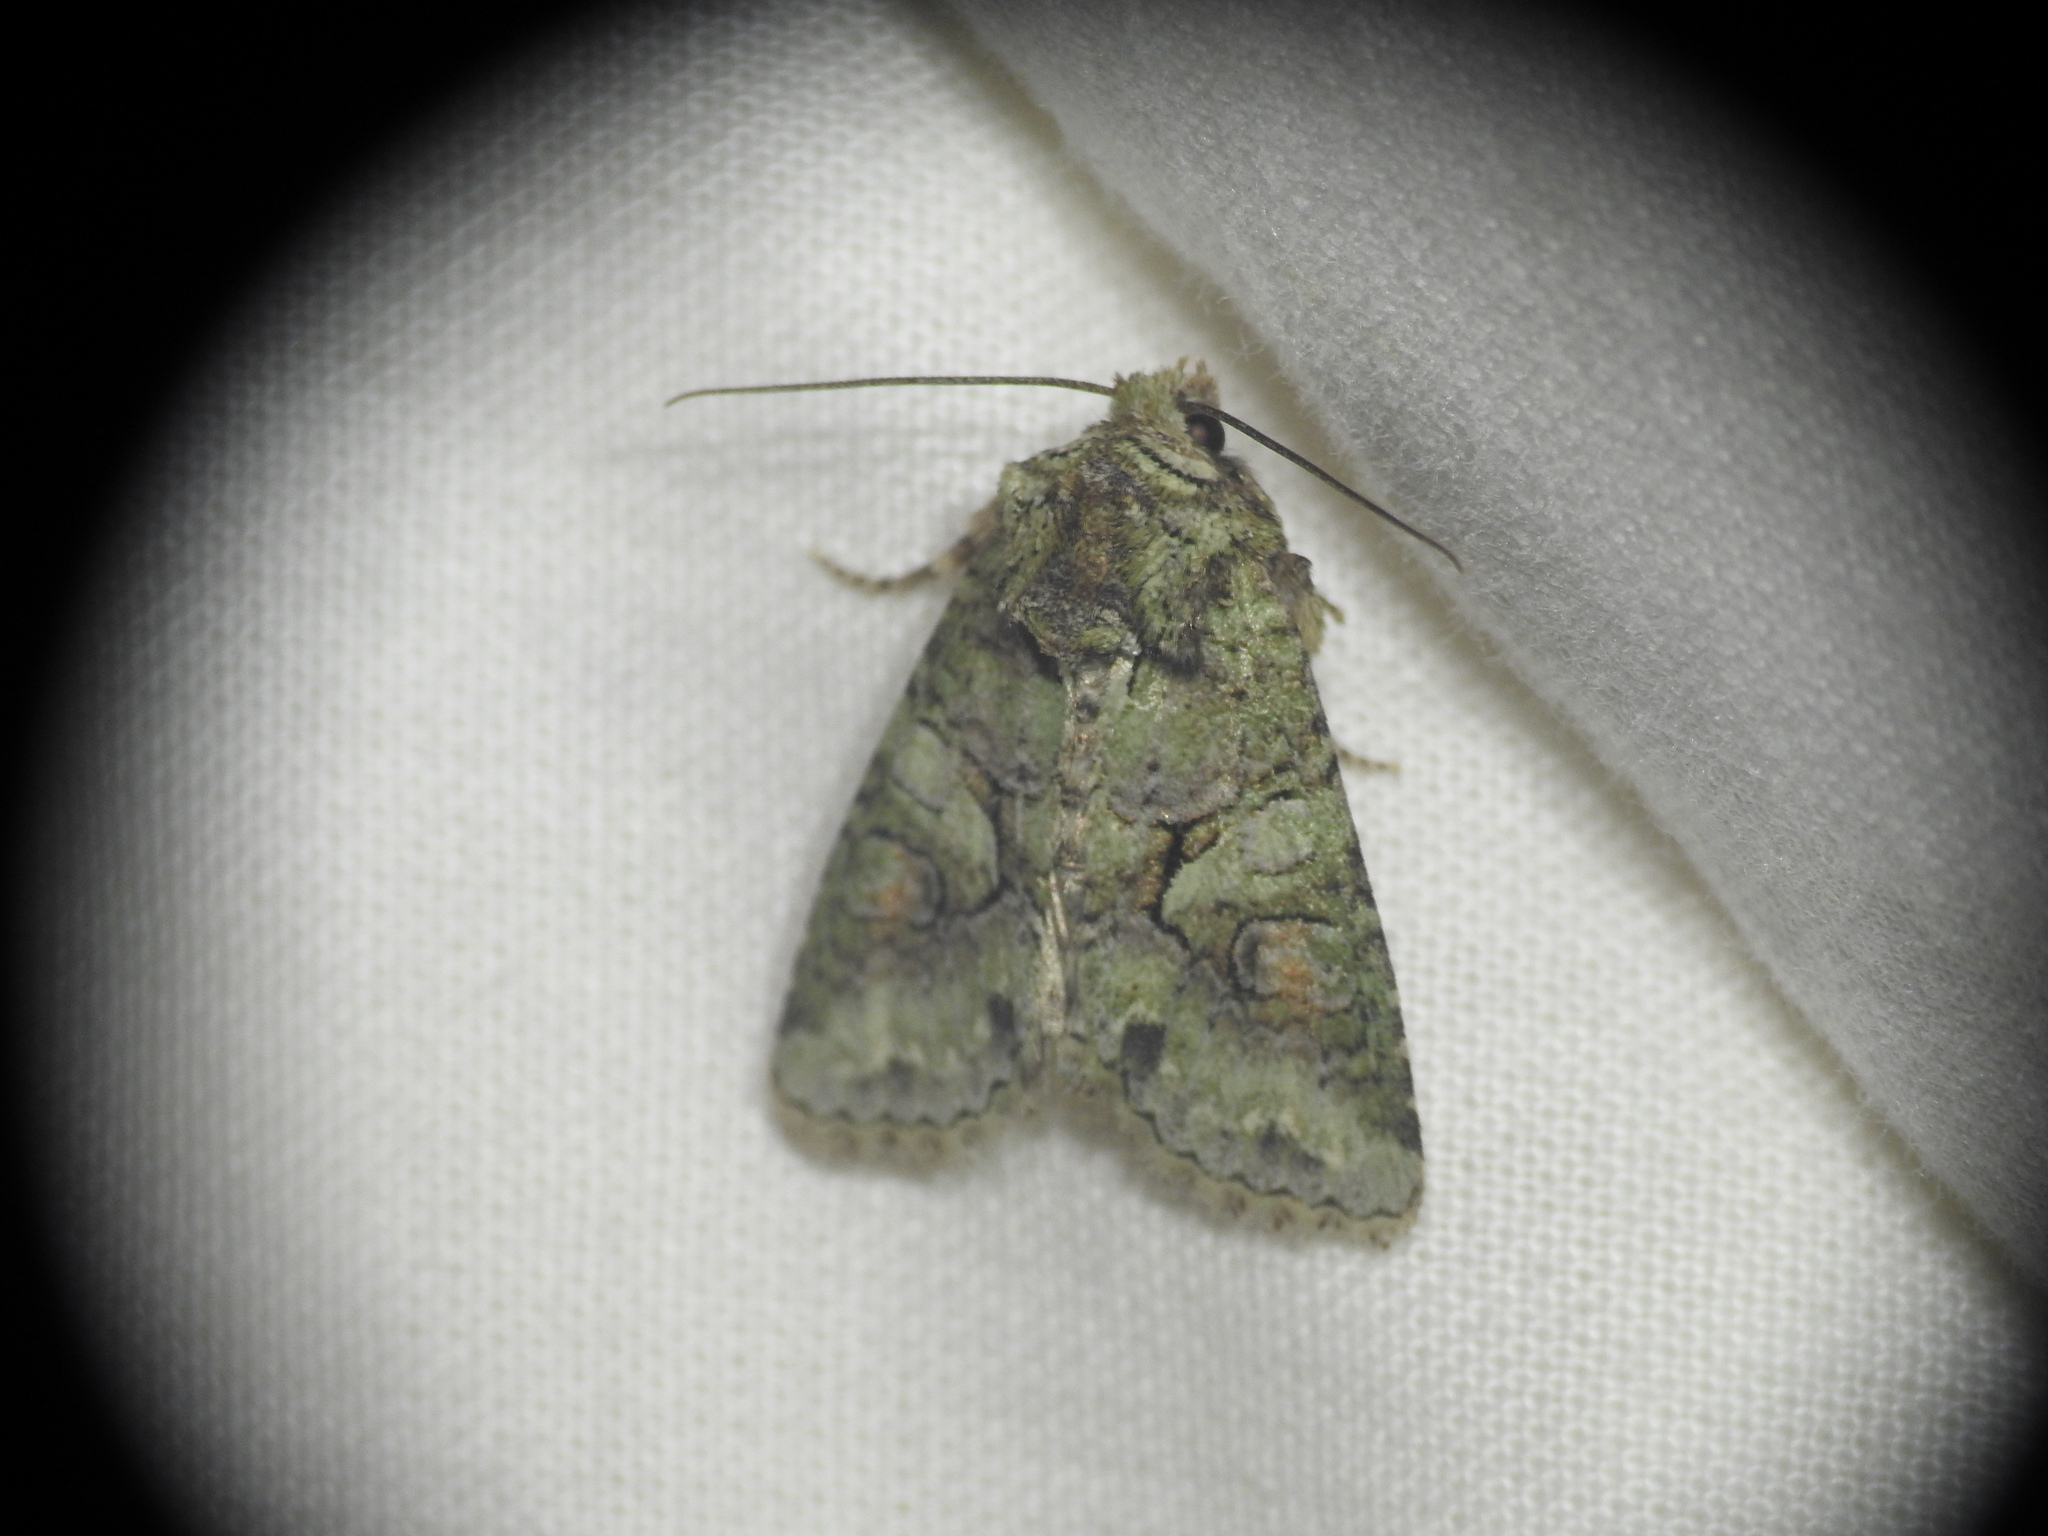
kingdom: Animalia
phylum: Arthropoda
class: Insecta
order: Lepidoptera
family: Noctuidae
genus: Dryobotodes
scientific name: Dryobotodes roboris
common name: Southern brindled green
